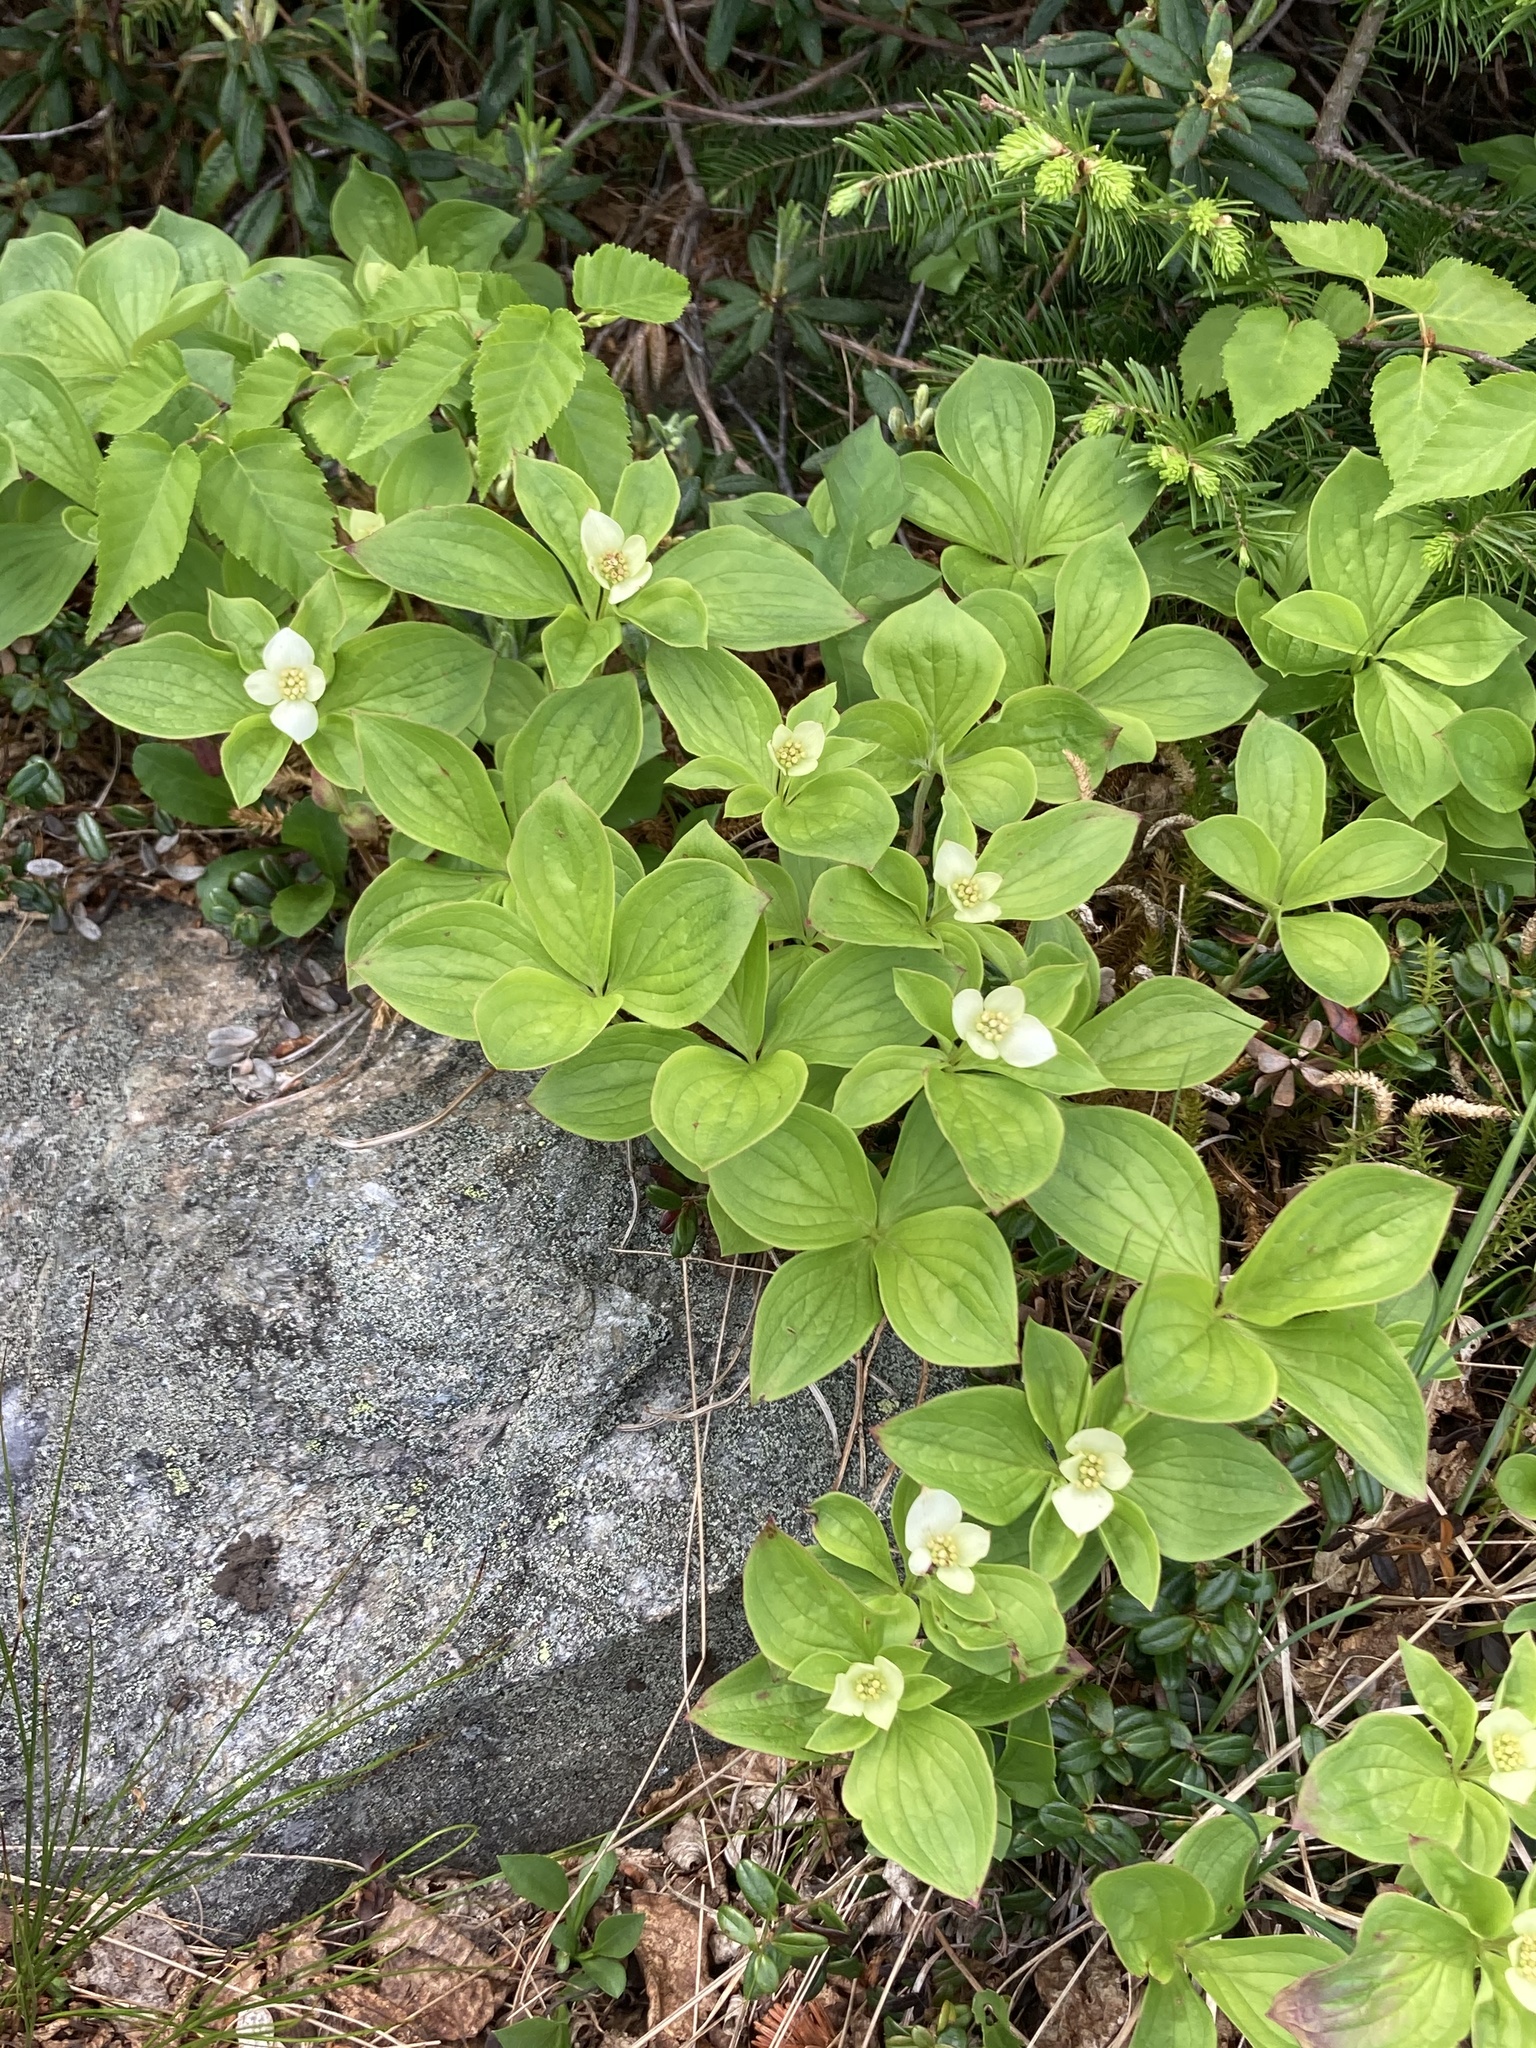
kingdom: Plantae
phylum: Tracheophyta
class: Magnoliopsida
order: Cornales
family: Cornaceae
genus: Cornus
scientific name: Cornus canadensis
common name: Creeping dogwood
